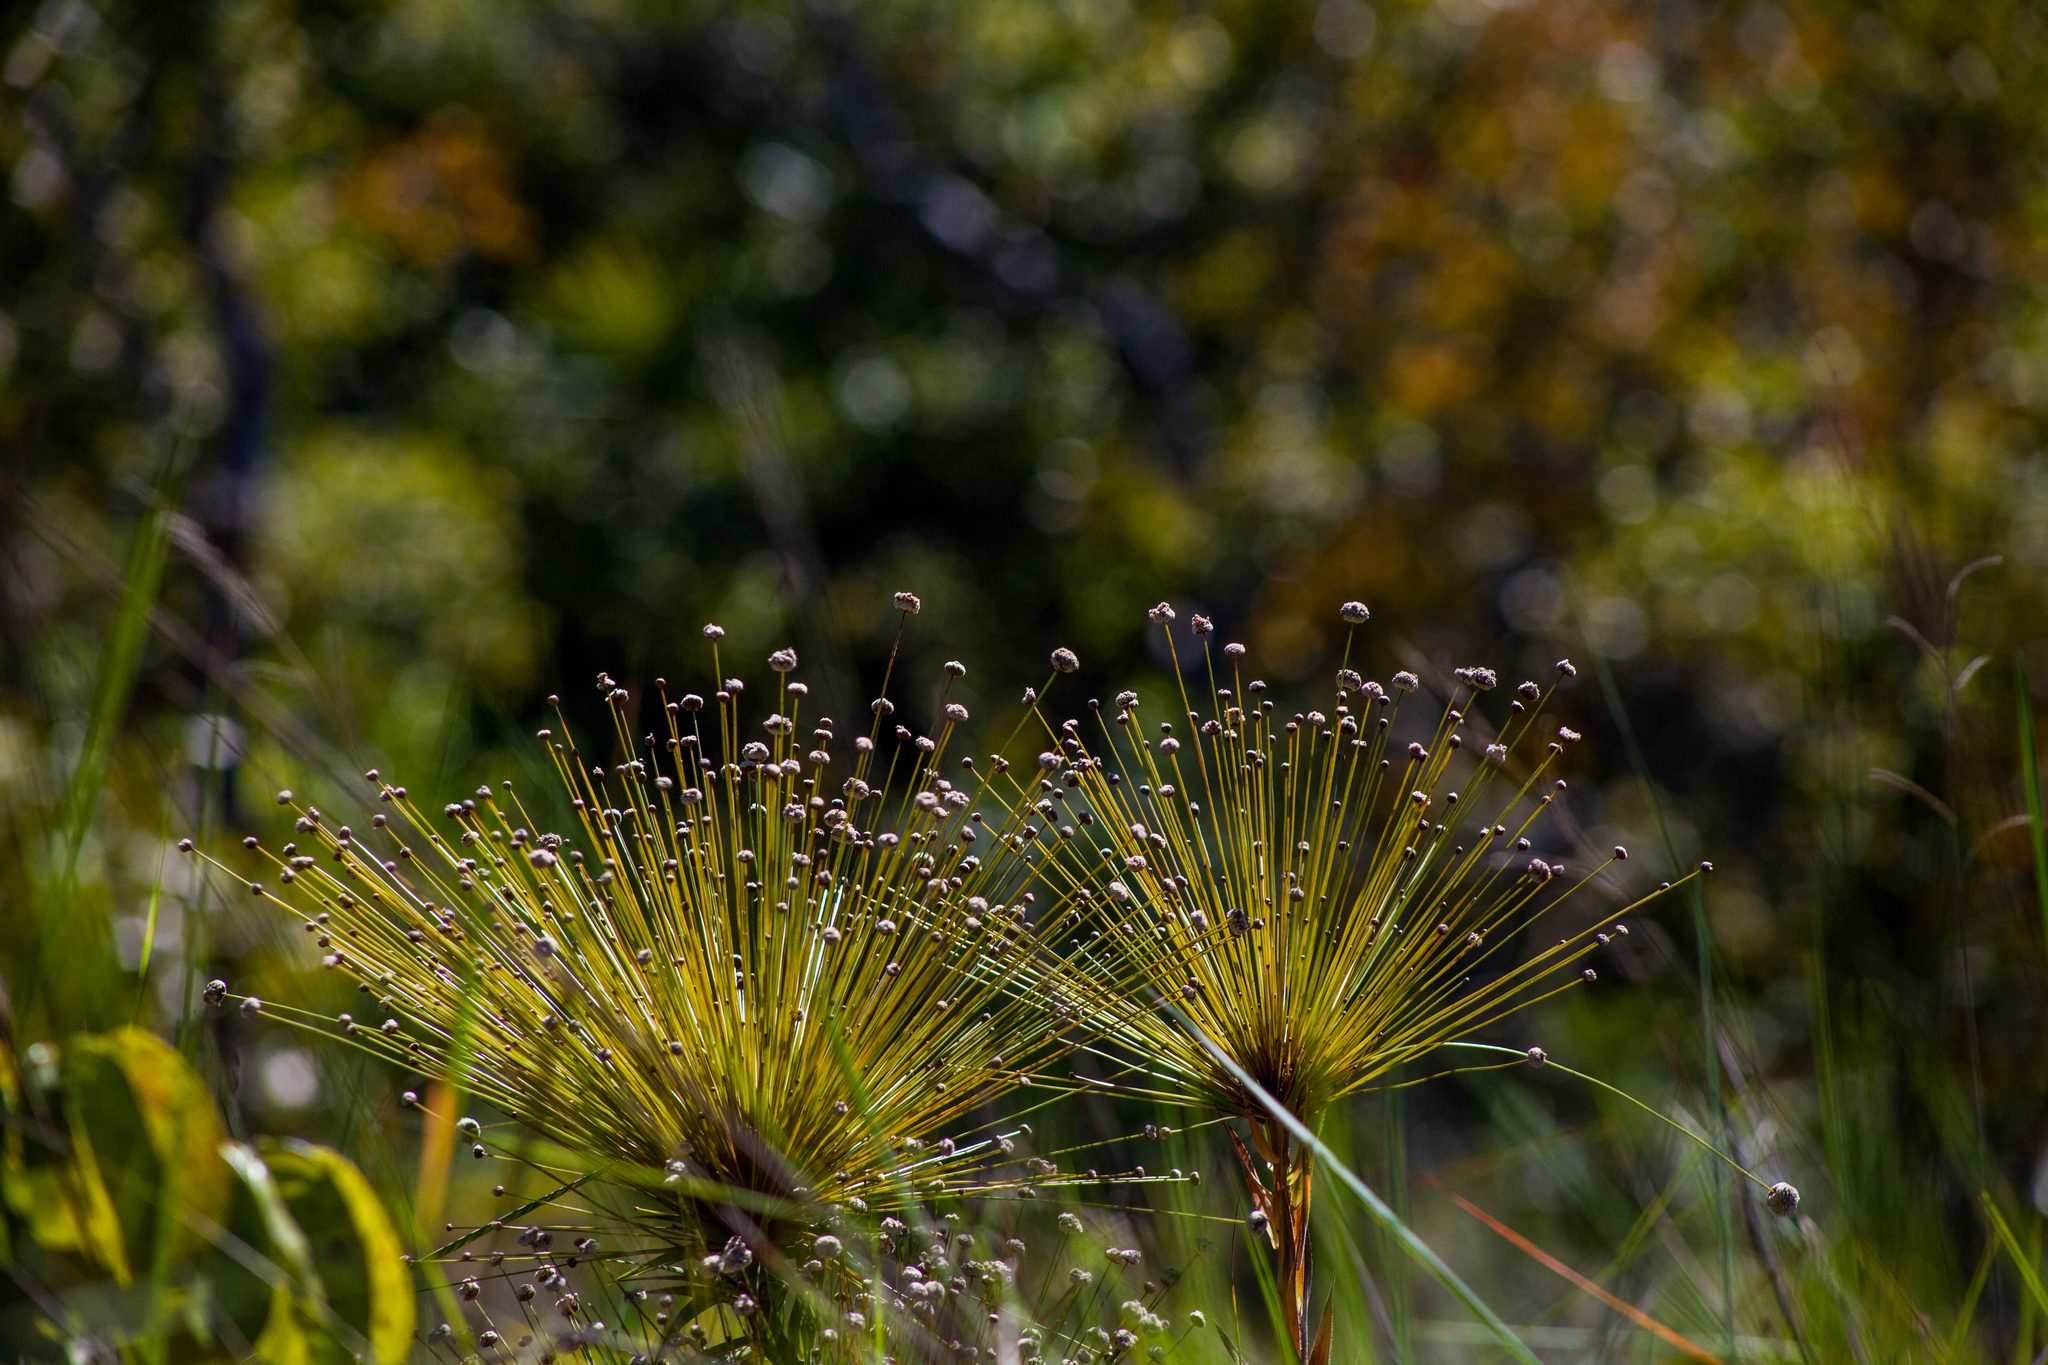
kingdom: Plantae
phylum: Tracheophyta
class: Liliopsida
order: Poales
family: Eriocaulaceae
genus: Paepalanthus
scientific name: Paepalanthus chiquitensis
